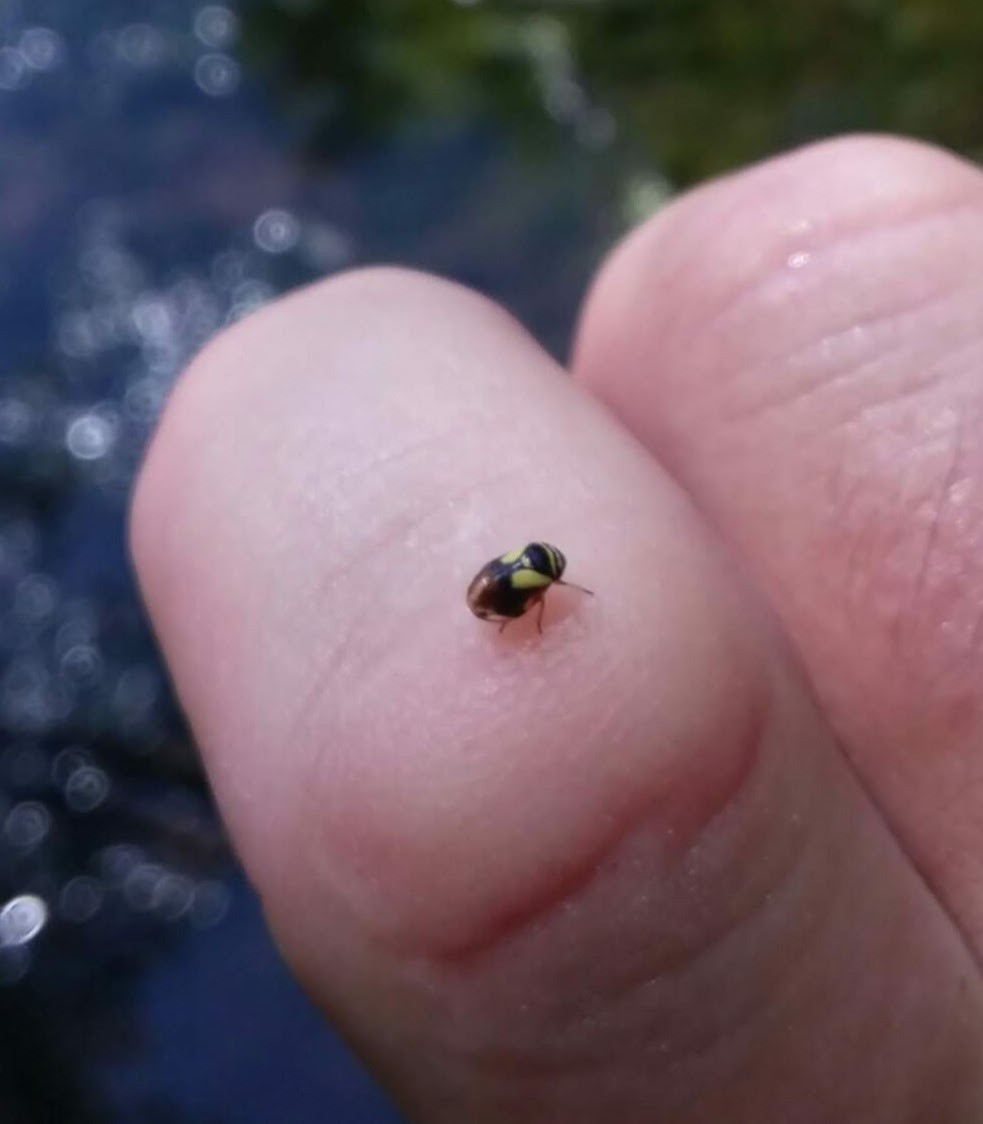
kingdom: Animalia
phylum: Arthropoda
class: Insecta
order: Hemiptera
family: Clastopteridae
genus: Clastoptera
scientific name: Clastoptera proteus
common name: Dogwood spittlebug
